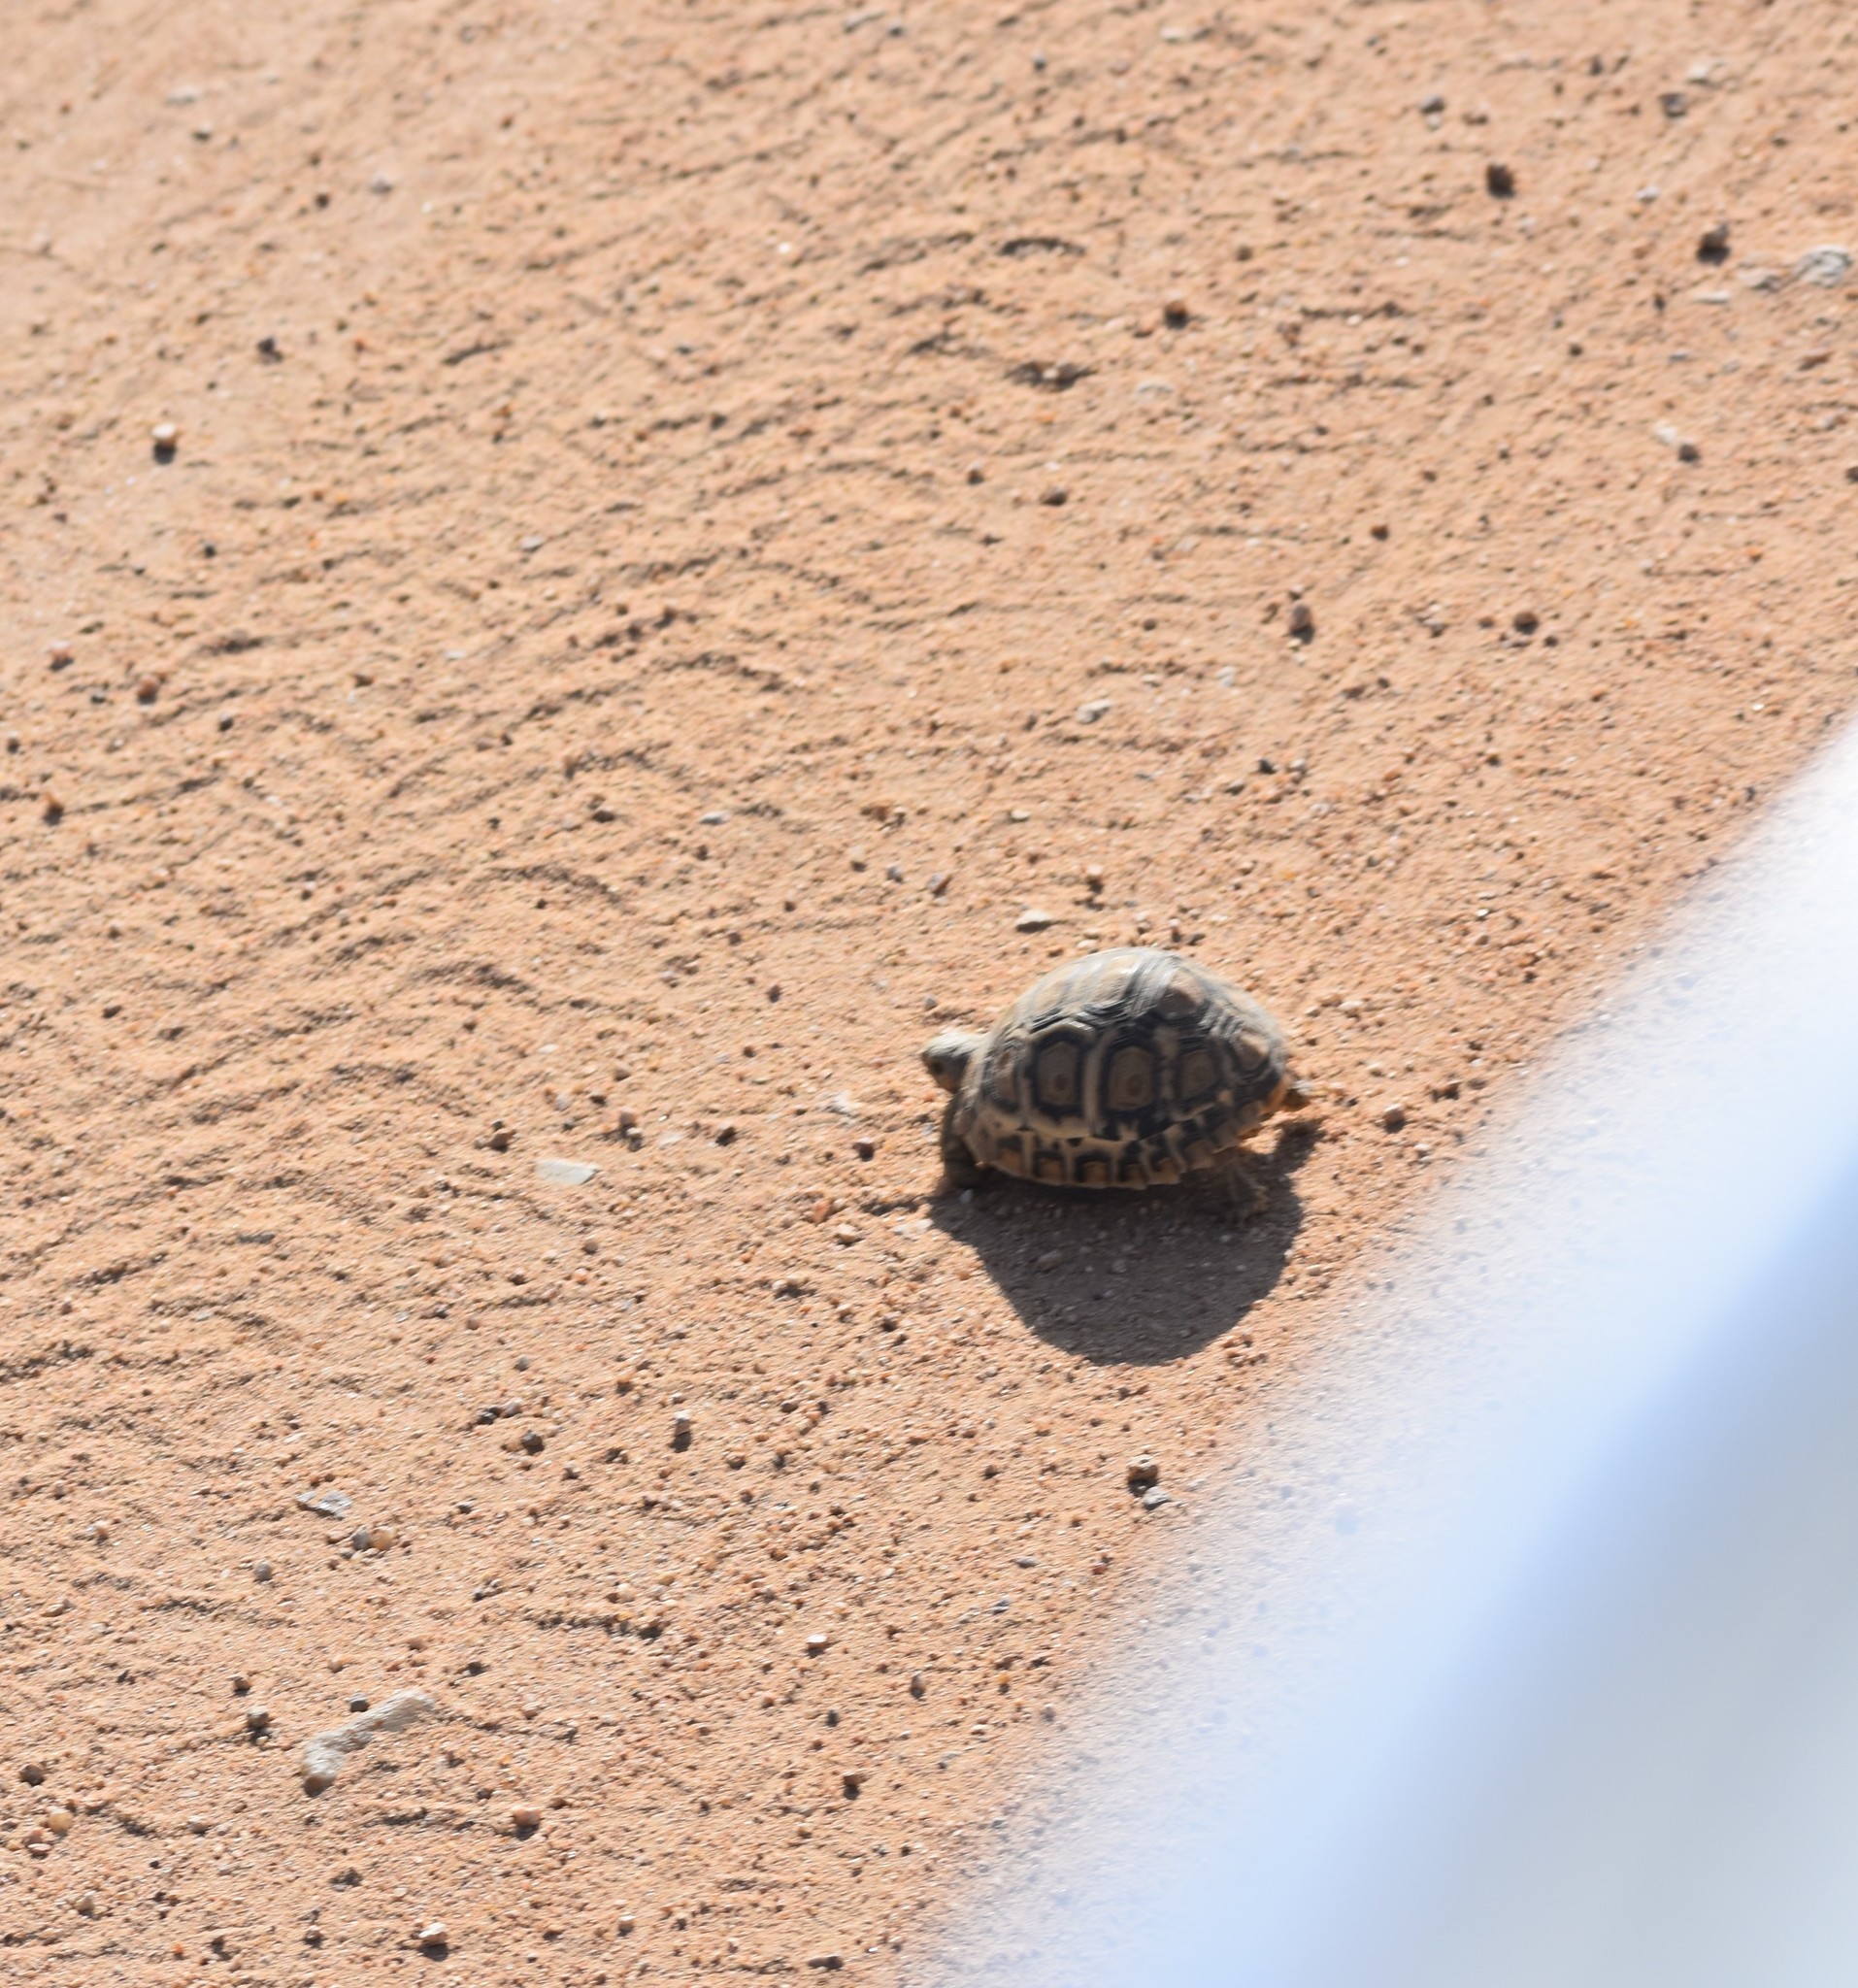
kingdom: Animalia
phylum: Chordata
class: Testudines
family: Testudinidae
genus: Stigmochelys
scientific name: Stigmochelys pardalis
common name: Leopard tortoise
